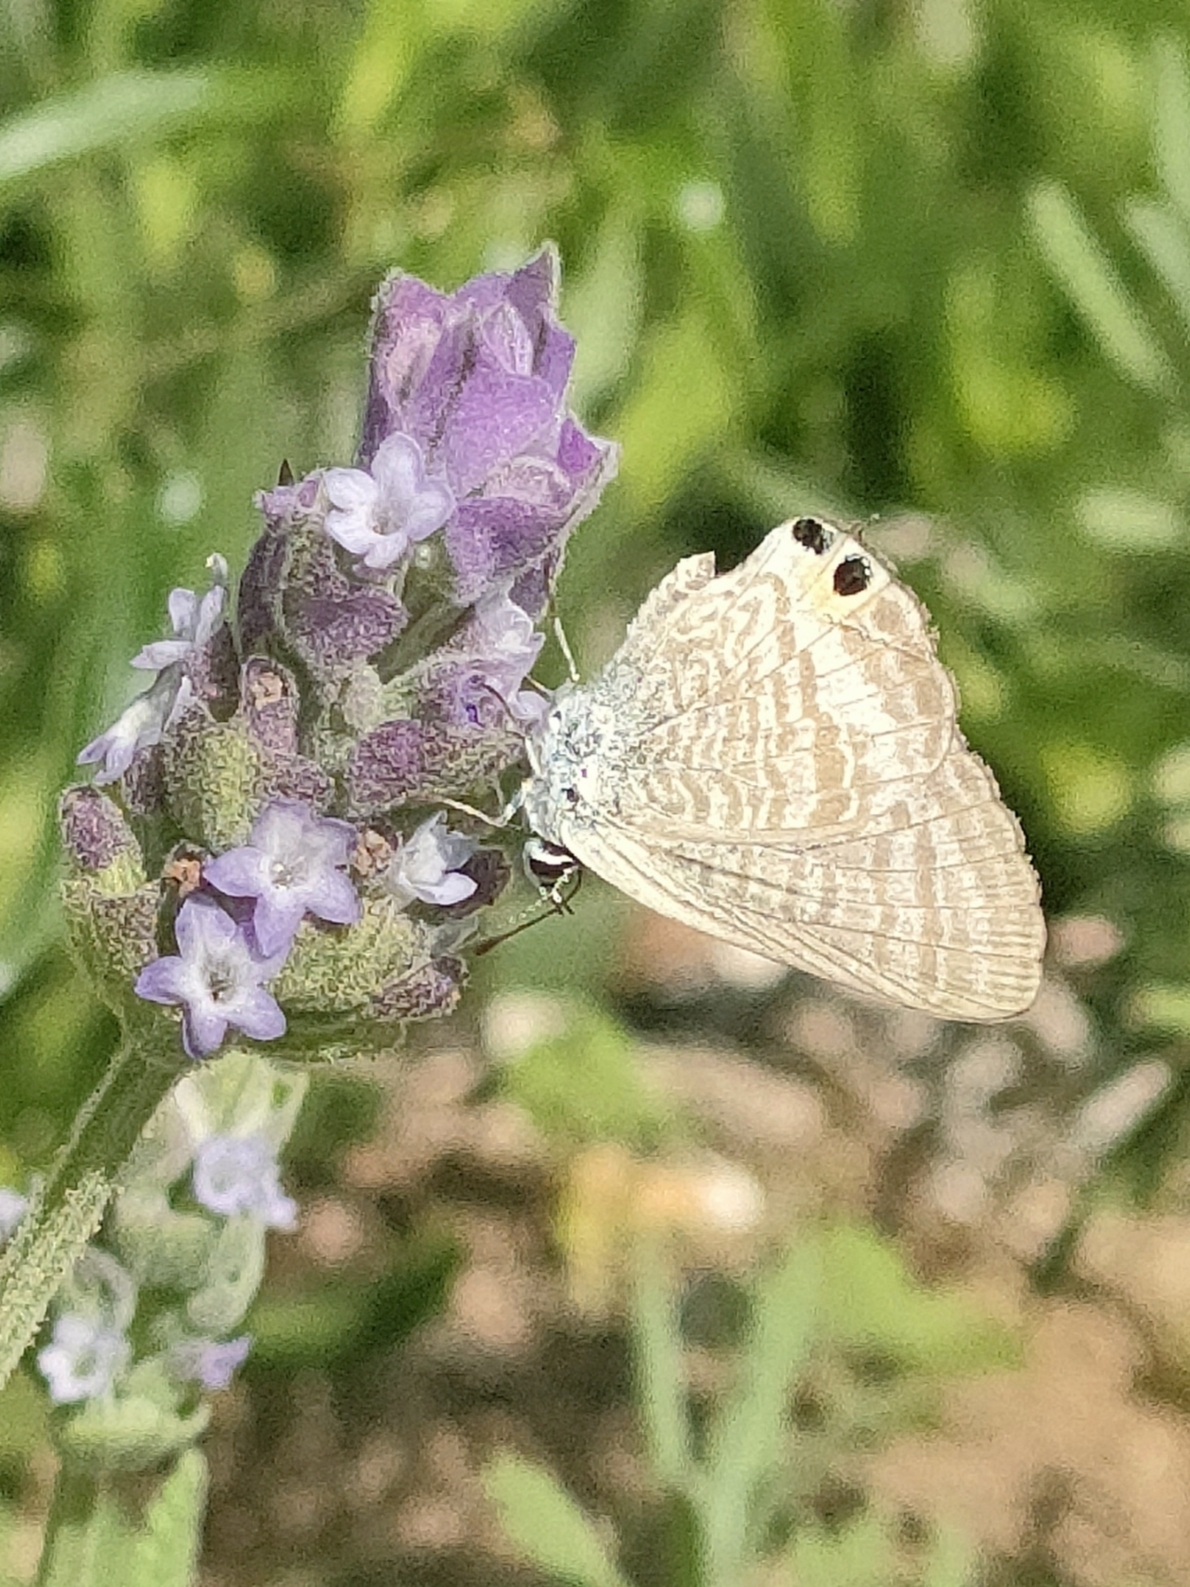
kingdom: Animalia
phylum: Arthropoda
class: Insecta
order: Lepidoptera
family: Lycaenidae
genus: Lampides
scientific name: Lampides boeticus
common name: Long-tailed blue
